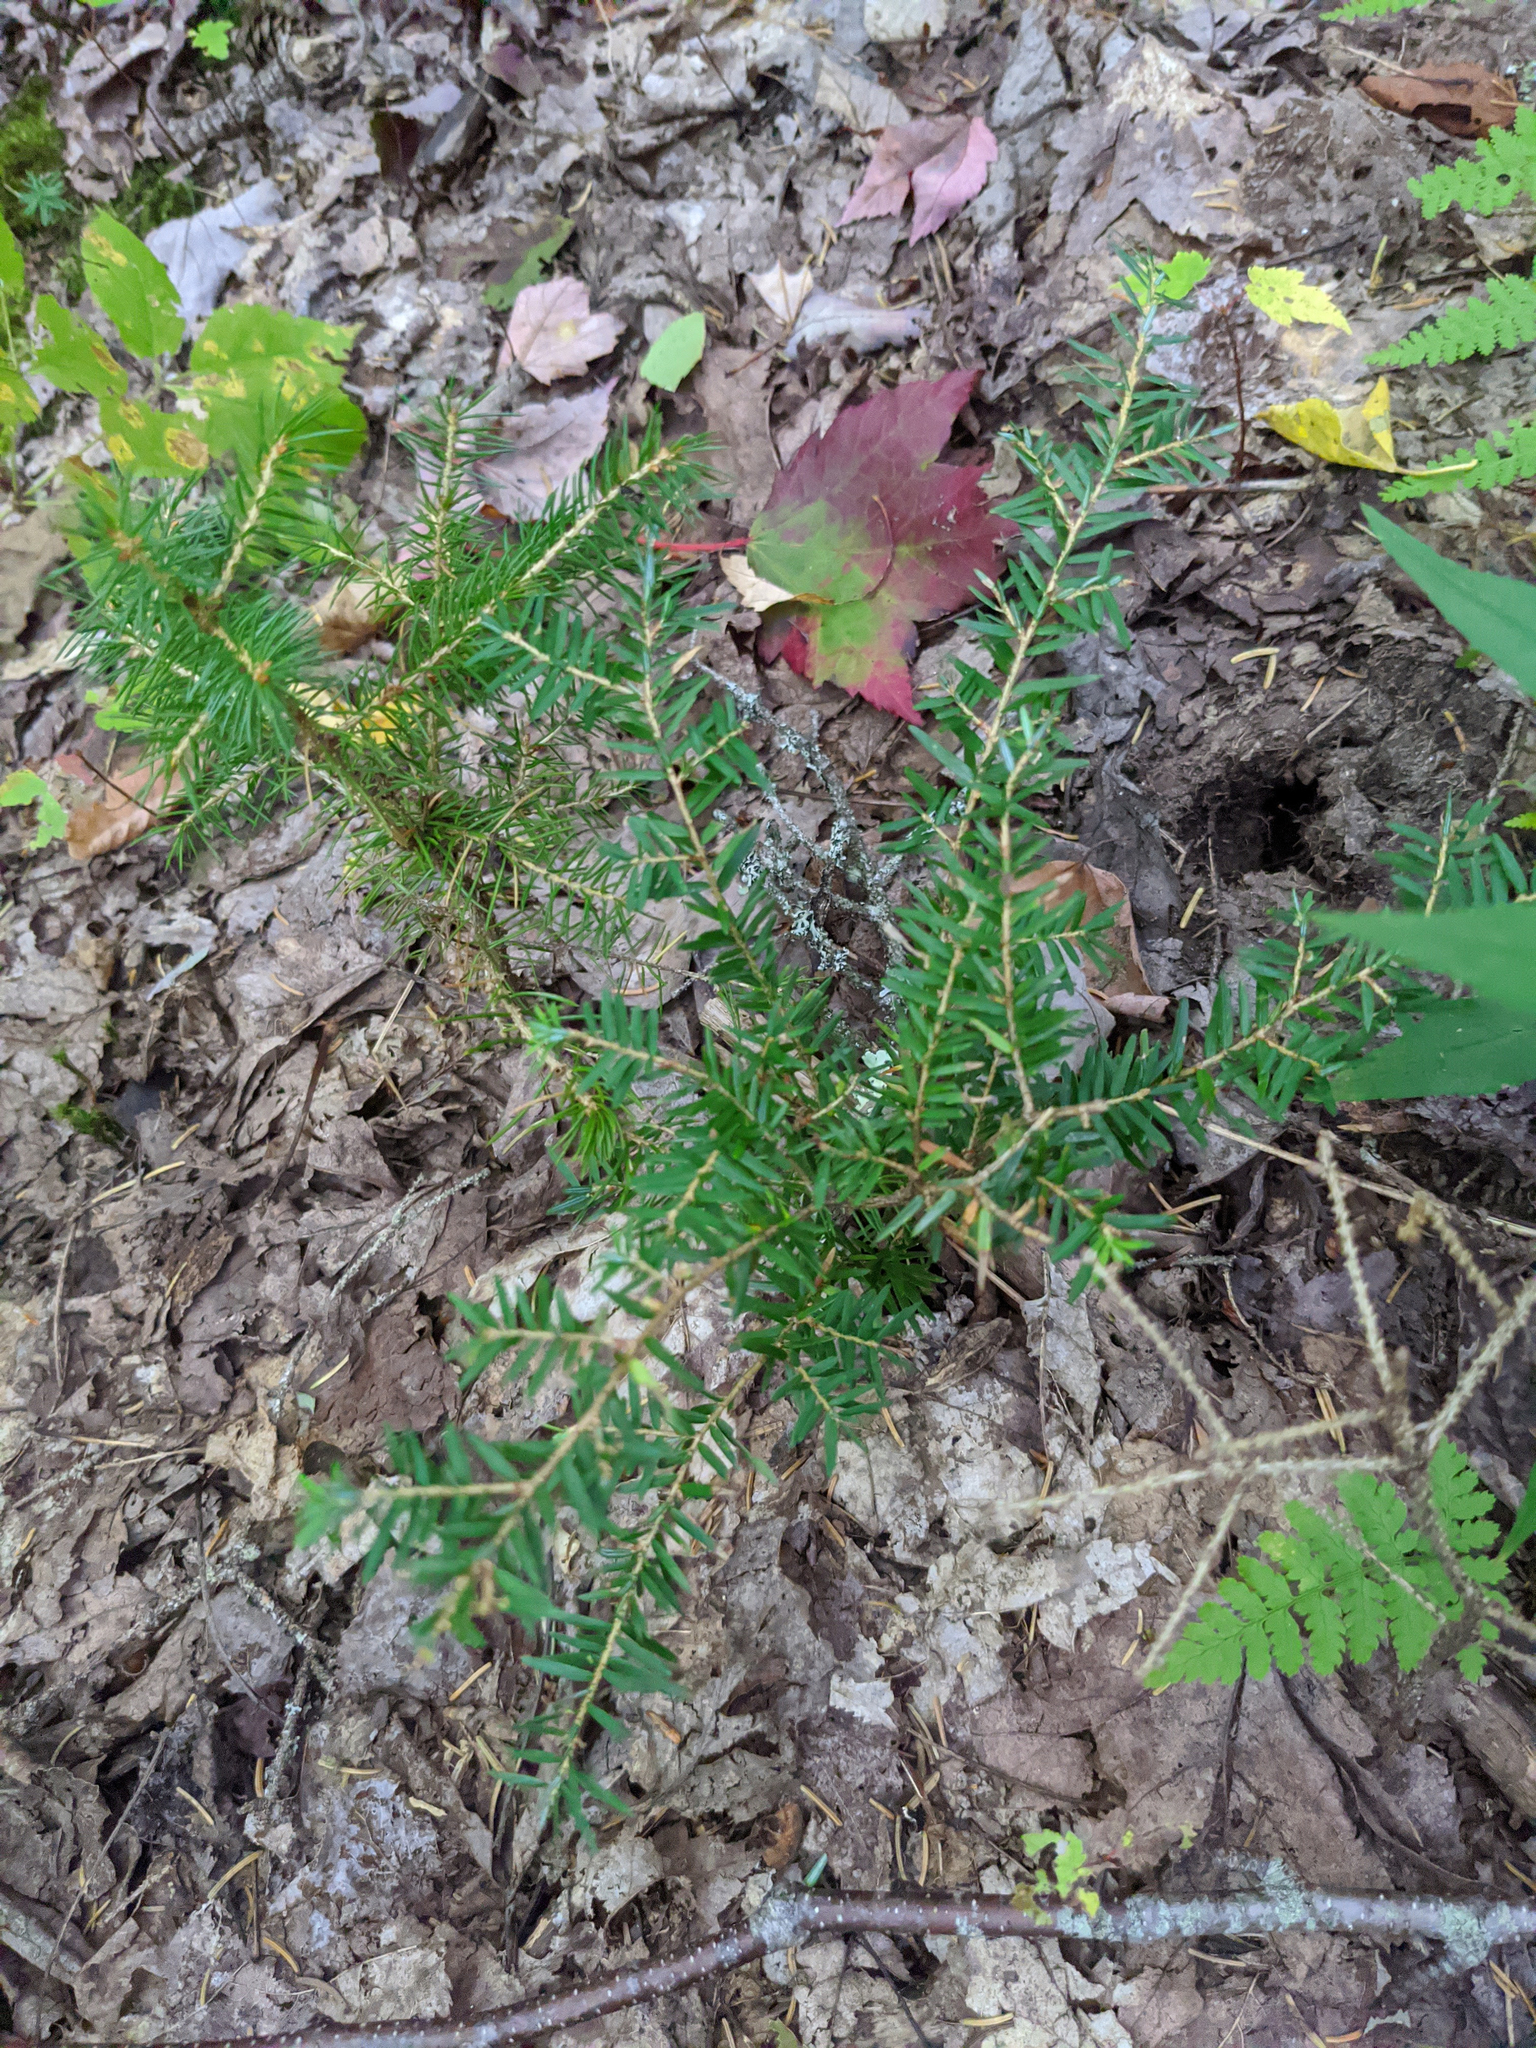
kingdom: Plantae
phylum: Tracheophyta
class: Pinopsida
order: Pinales
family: Pinaceae
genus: Tsuga
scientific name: Tsuga canadensis
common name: Eastern hemlock
